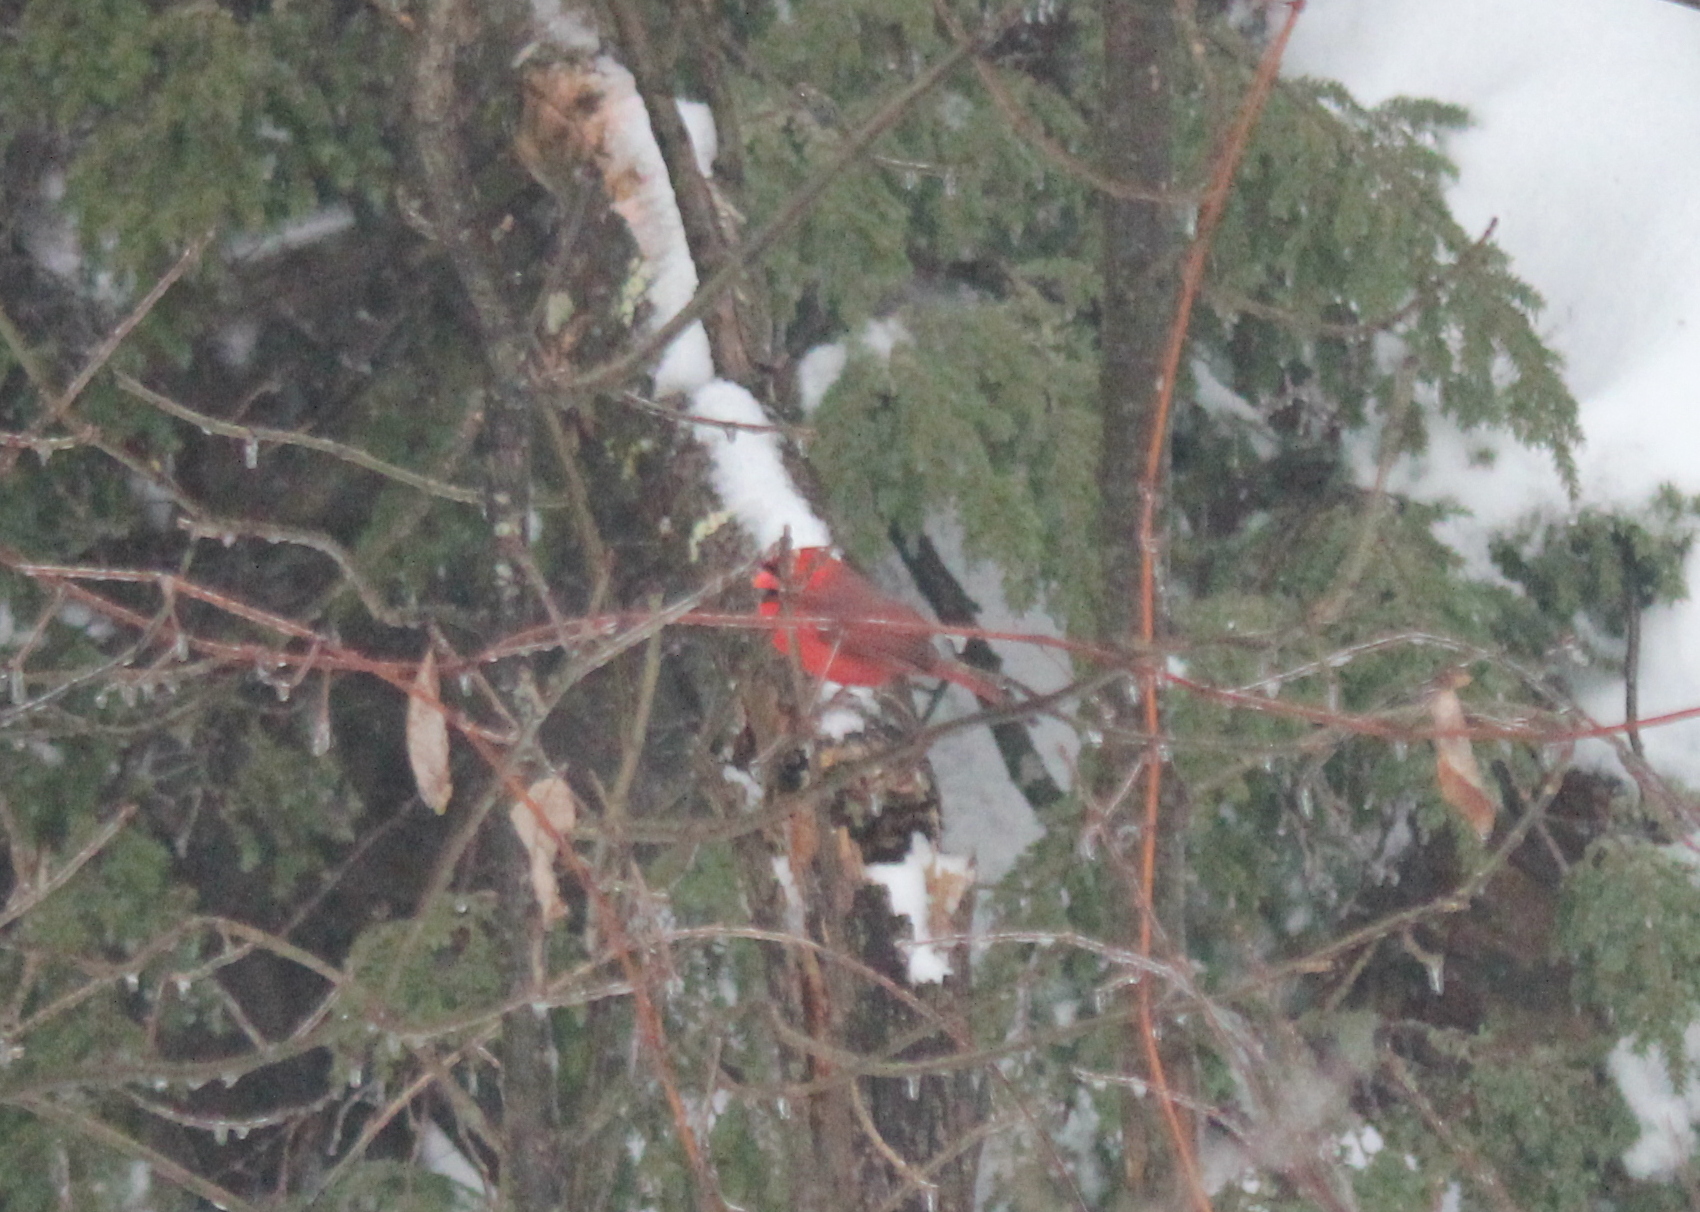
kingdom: Animalia
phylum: Chordata
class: Aves
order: Passeriformes
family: Cardinalidae
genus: Cardinalis
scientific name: Cardinalis cardinalis
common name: Northern cardinal
